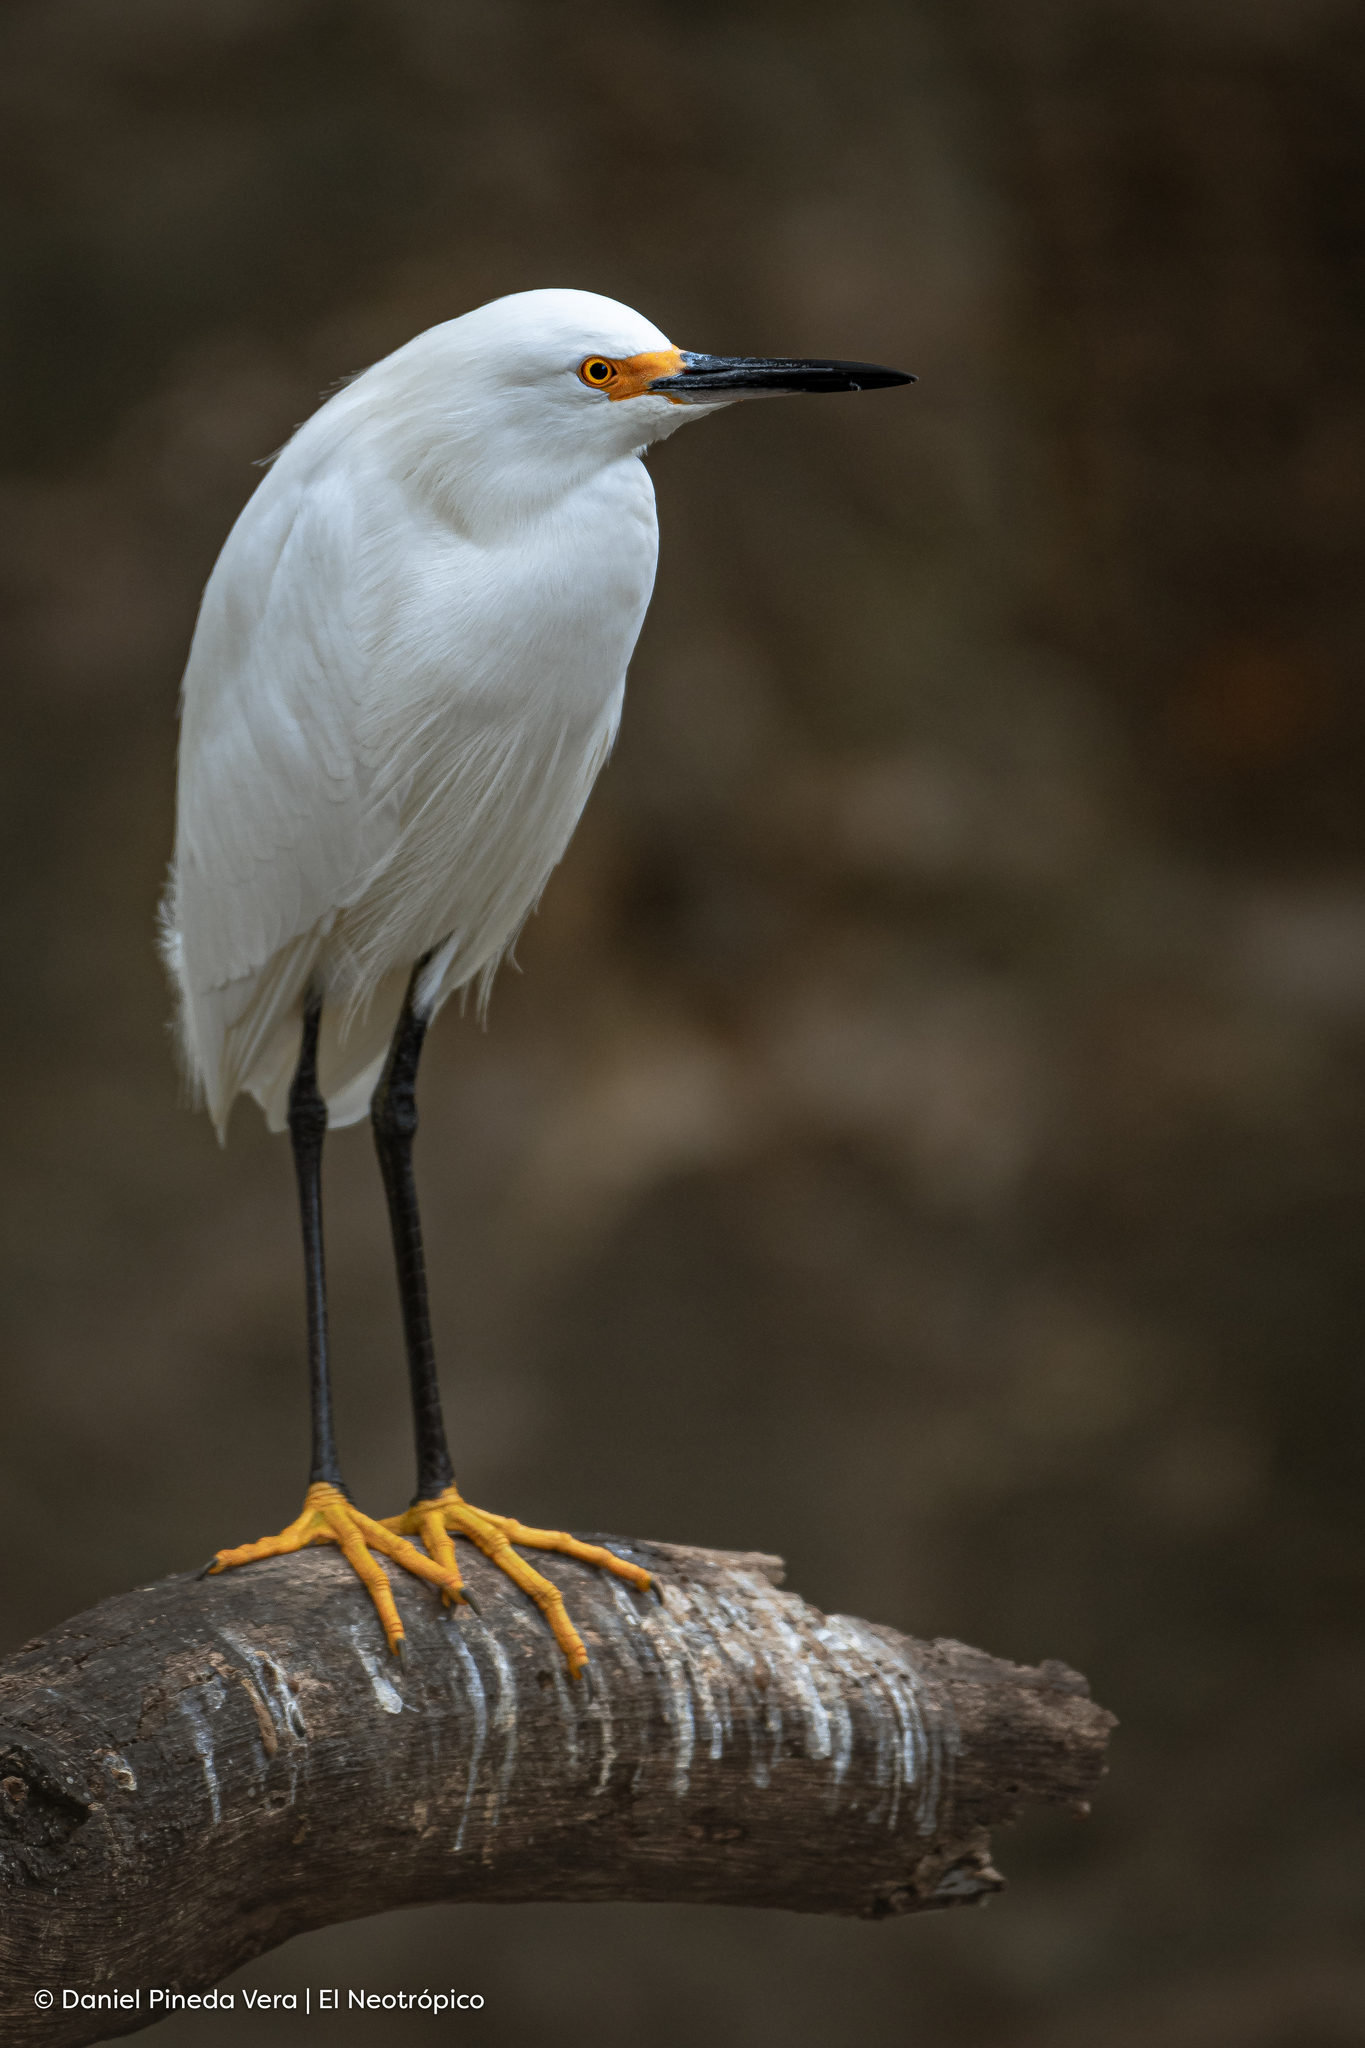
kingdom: Animalia
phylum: Chordata
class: Aves
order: Pelecaniformes
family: Ardeidae
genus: Egretta
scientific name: Egretta thula
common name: Snowy egret
